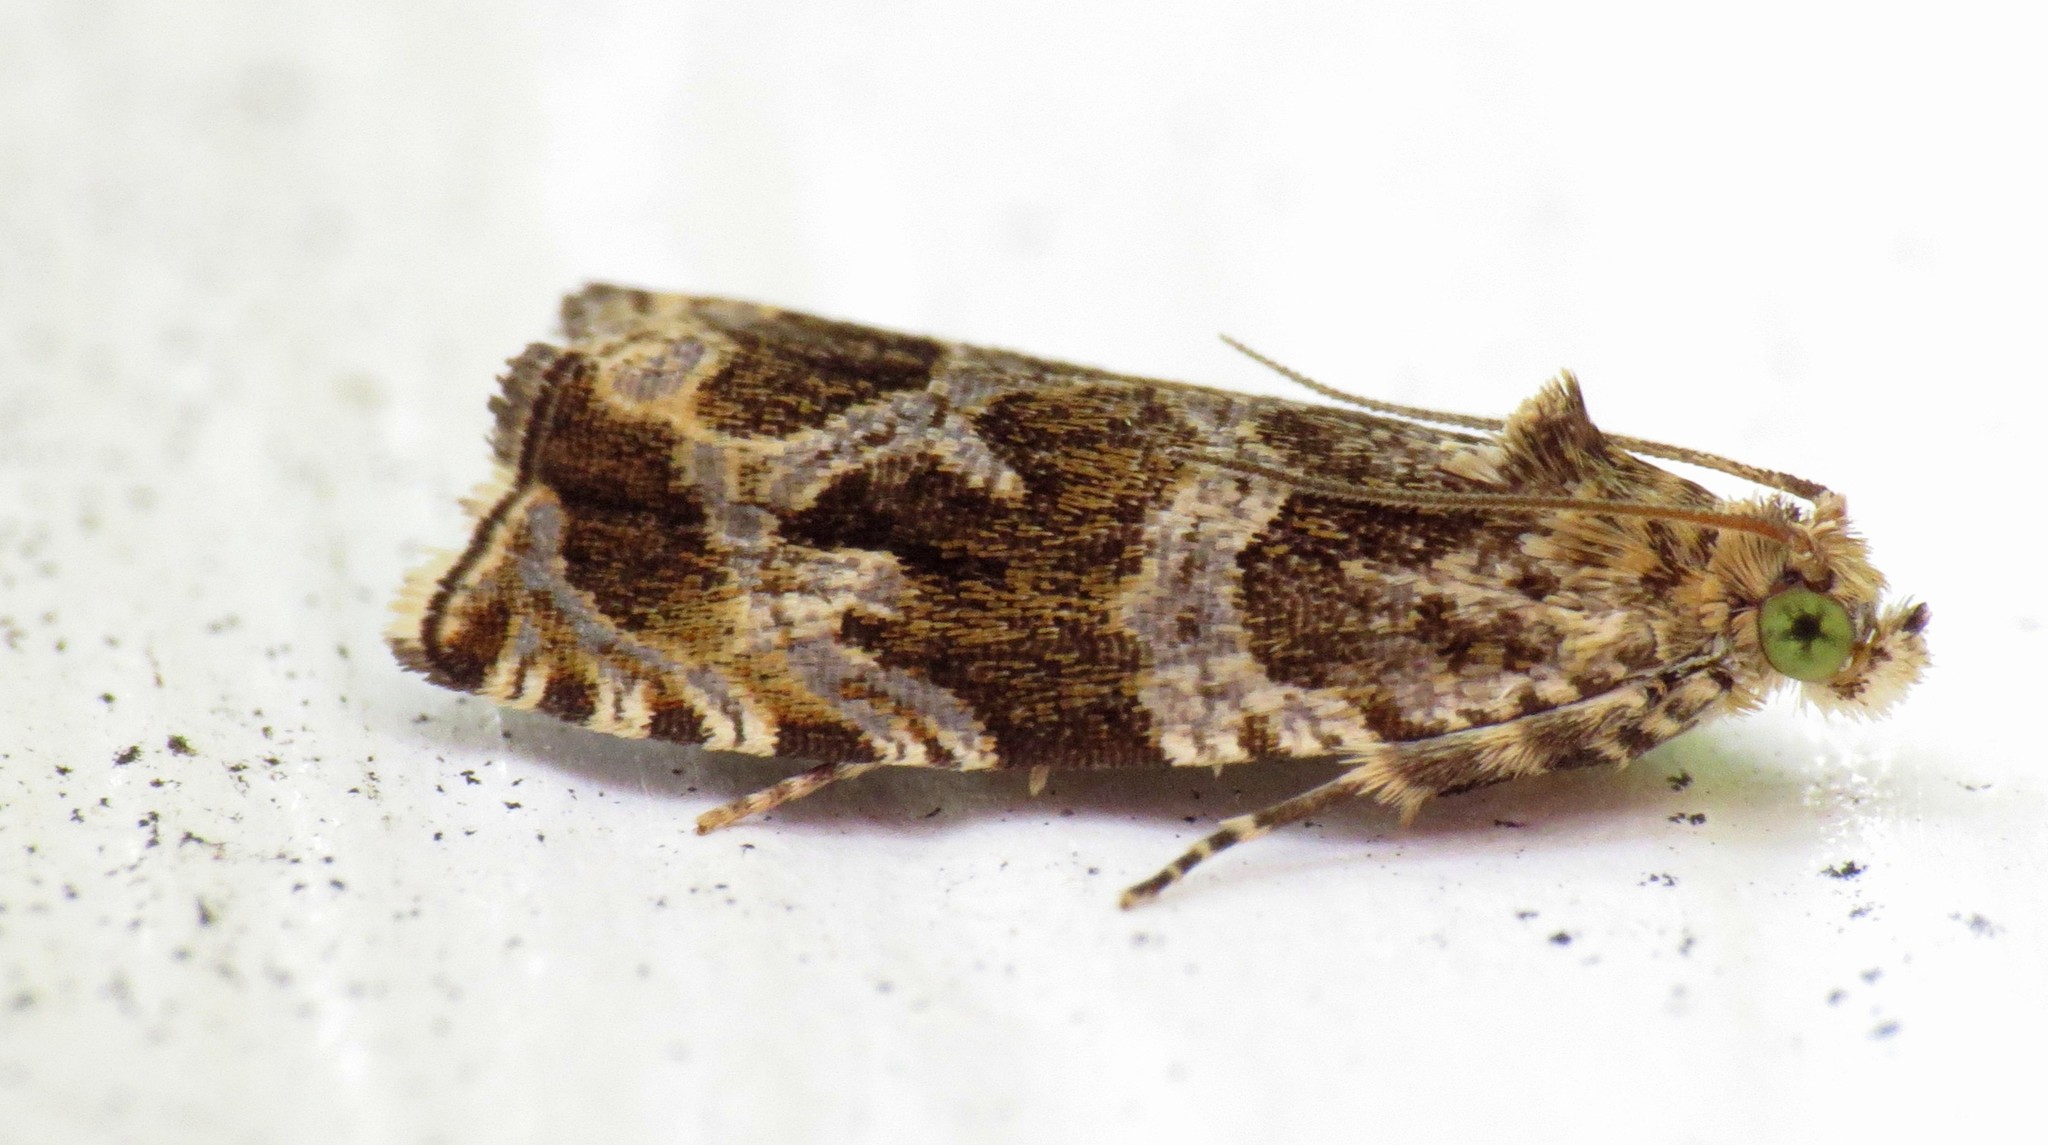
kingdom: Animalia
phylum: Arthropoda
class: Insecta
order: Lepidoptera
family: Tortricidae
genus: Olethreutes
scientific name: Olethreutes permundana
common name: Raspberry leafroller moth
